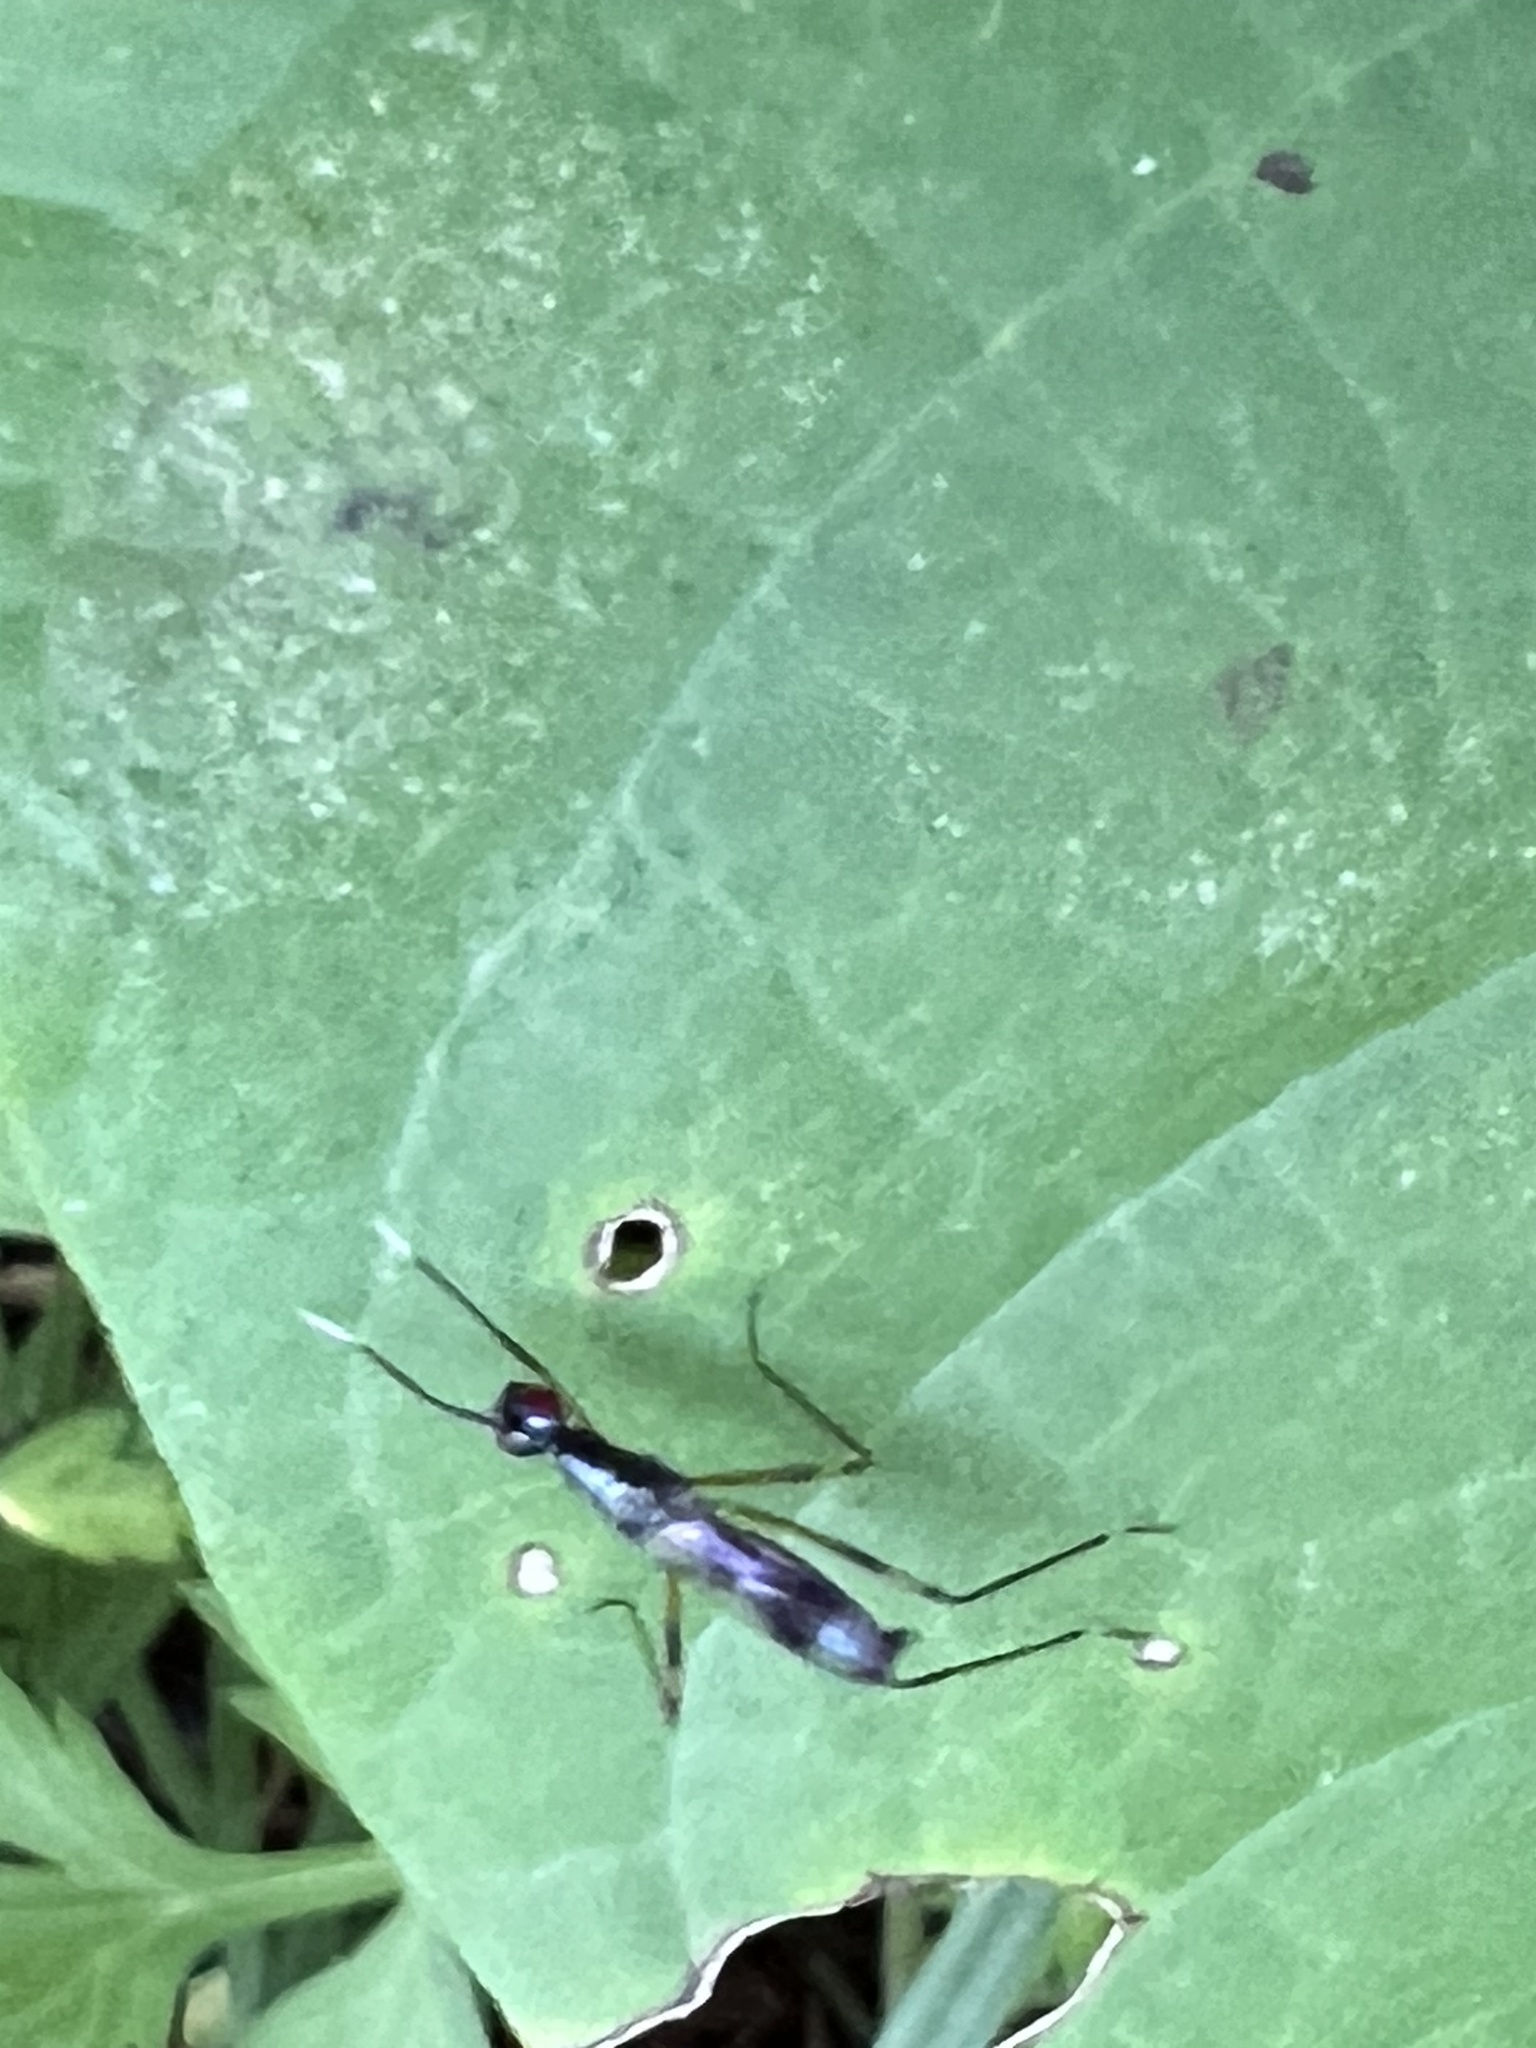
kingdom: Animalia
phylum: Arthropoda
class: Insecta
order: Diptera
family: Micropezidae
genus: Rainieria
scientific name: Rainieria antennaepes
